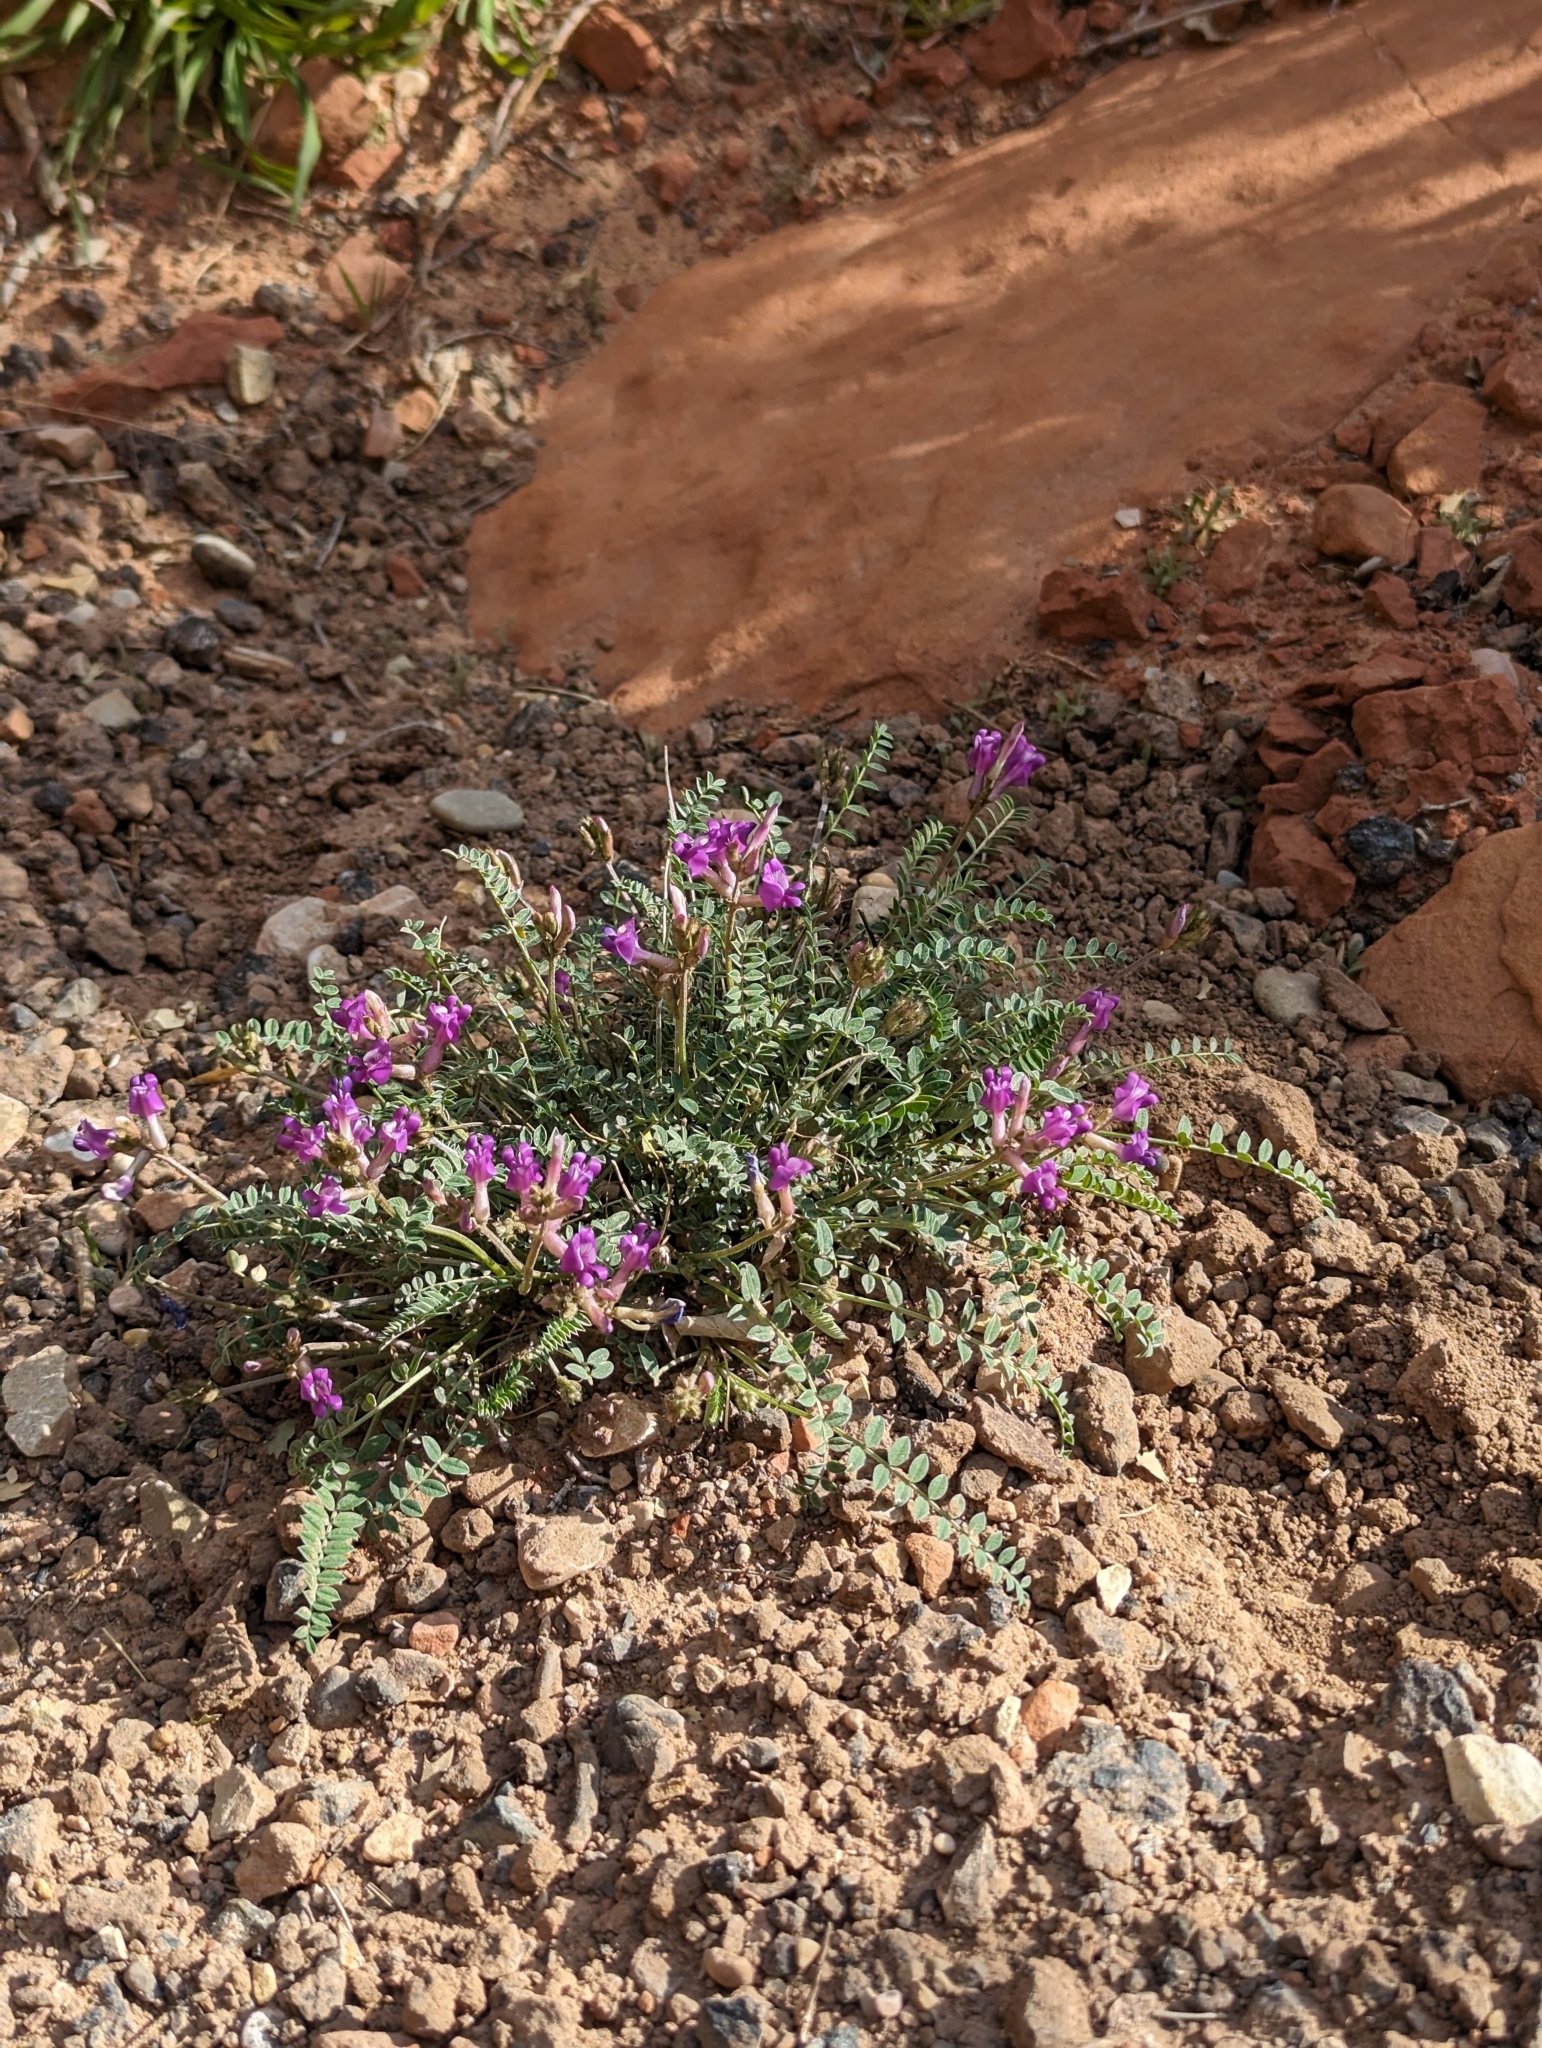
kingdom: Plantae
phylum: Tracheophyta
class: Magnoliopsida
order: Fabales
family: Fabaceae
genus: Astragalus
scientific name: Astragalus zionis
